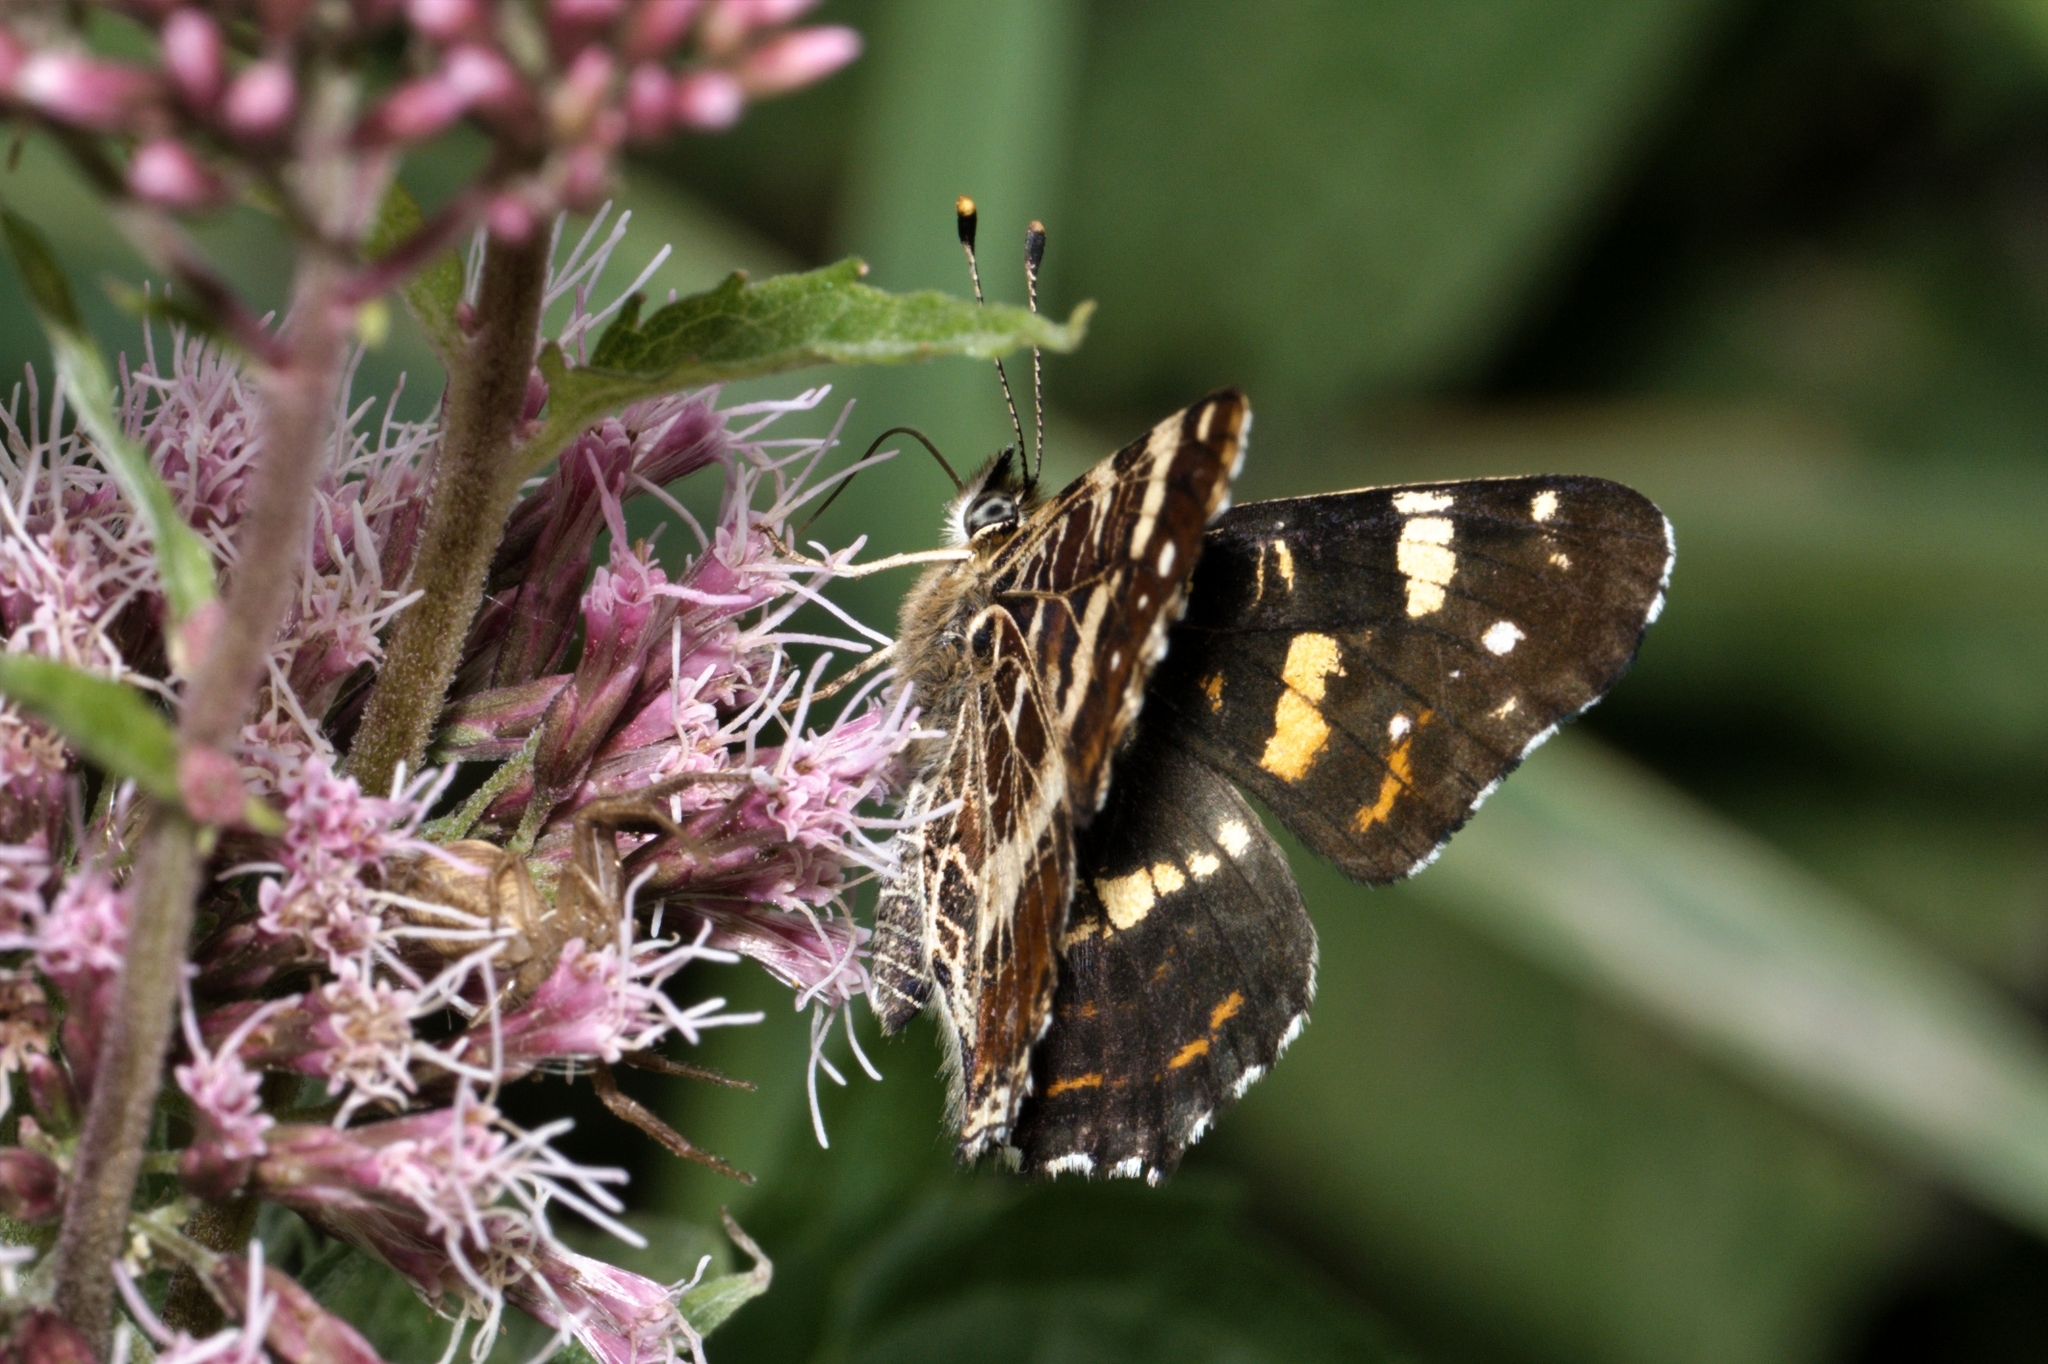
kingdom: Animalia
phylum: Arthropoda
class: Insecta
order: Lepidoptera
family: Nymphalidae
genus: Araschnia
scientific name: Araschnia levana
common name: Map butterfly
